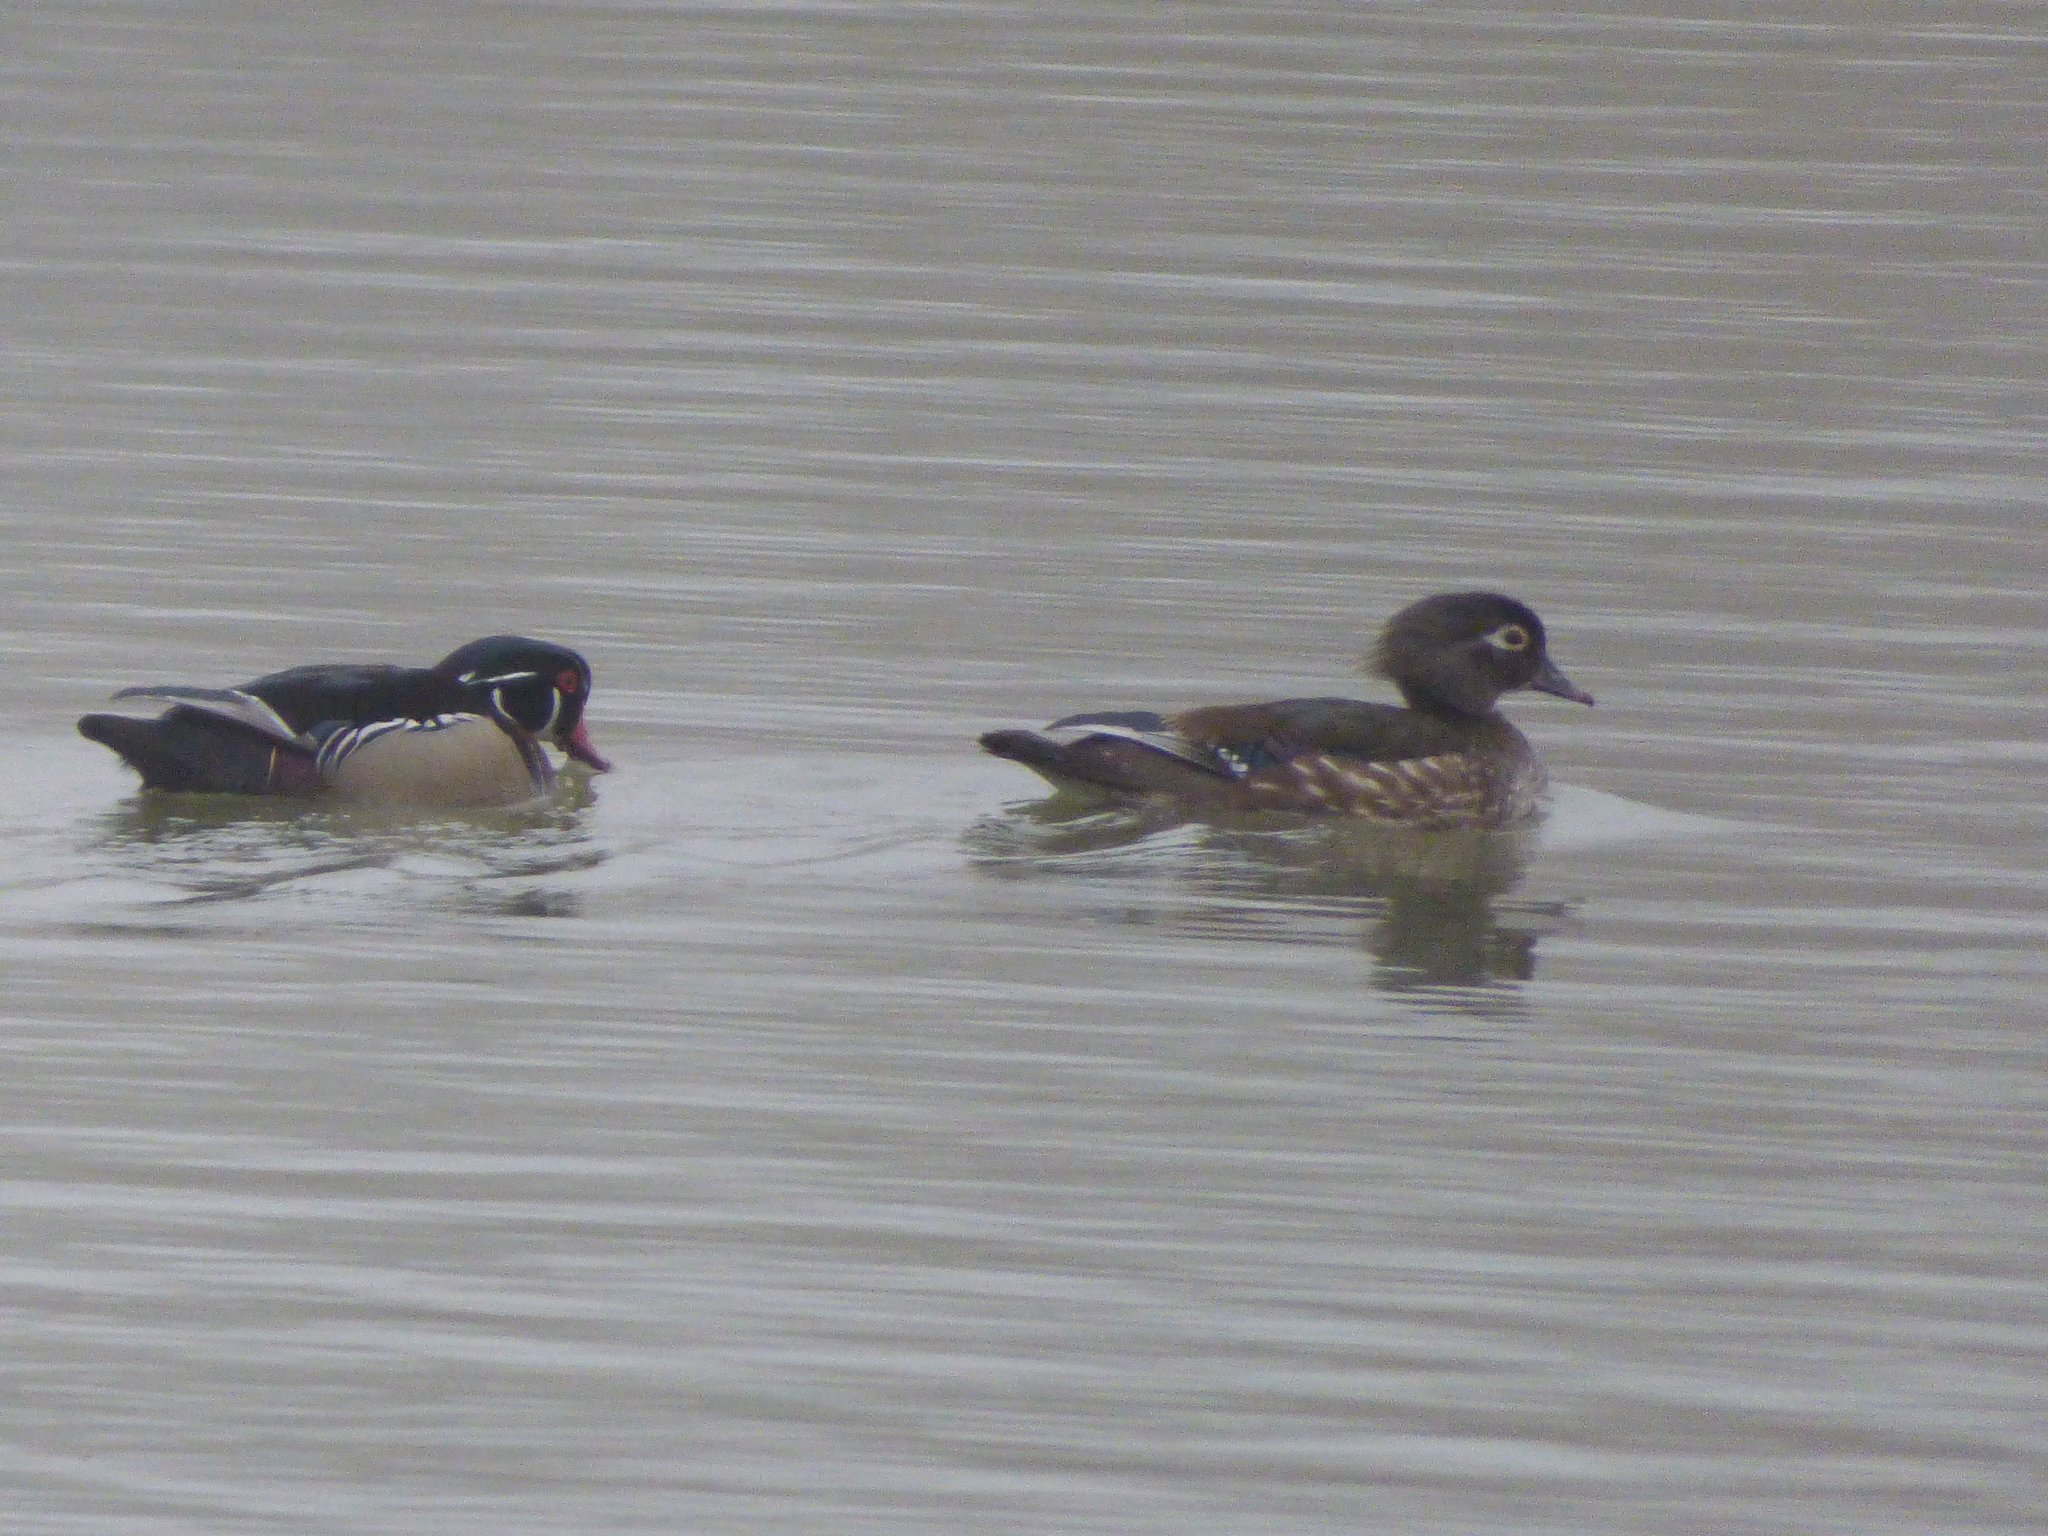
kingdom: Animalia
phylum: Chordata
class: Aves
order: Anseriformes
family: Anatidae
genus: Aix
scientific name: Aix sponsa
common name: Wood duck
